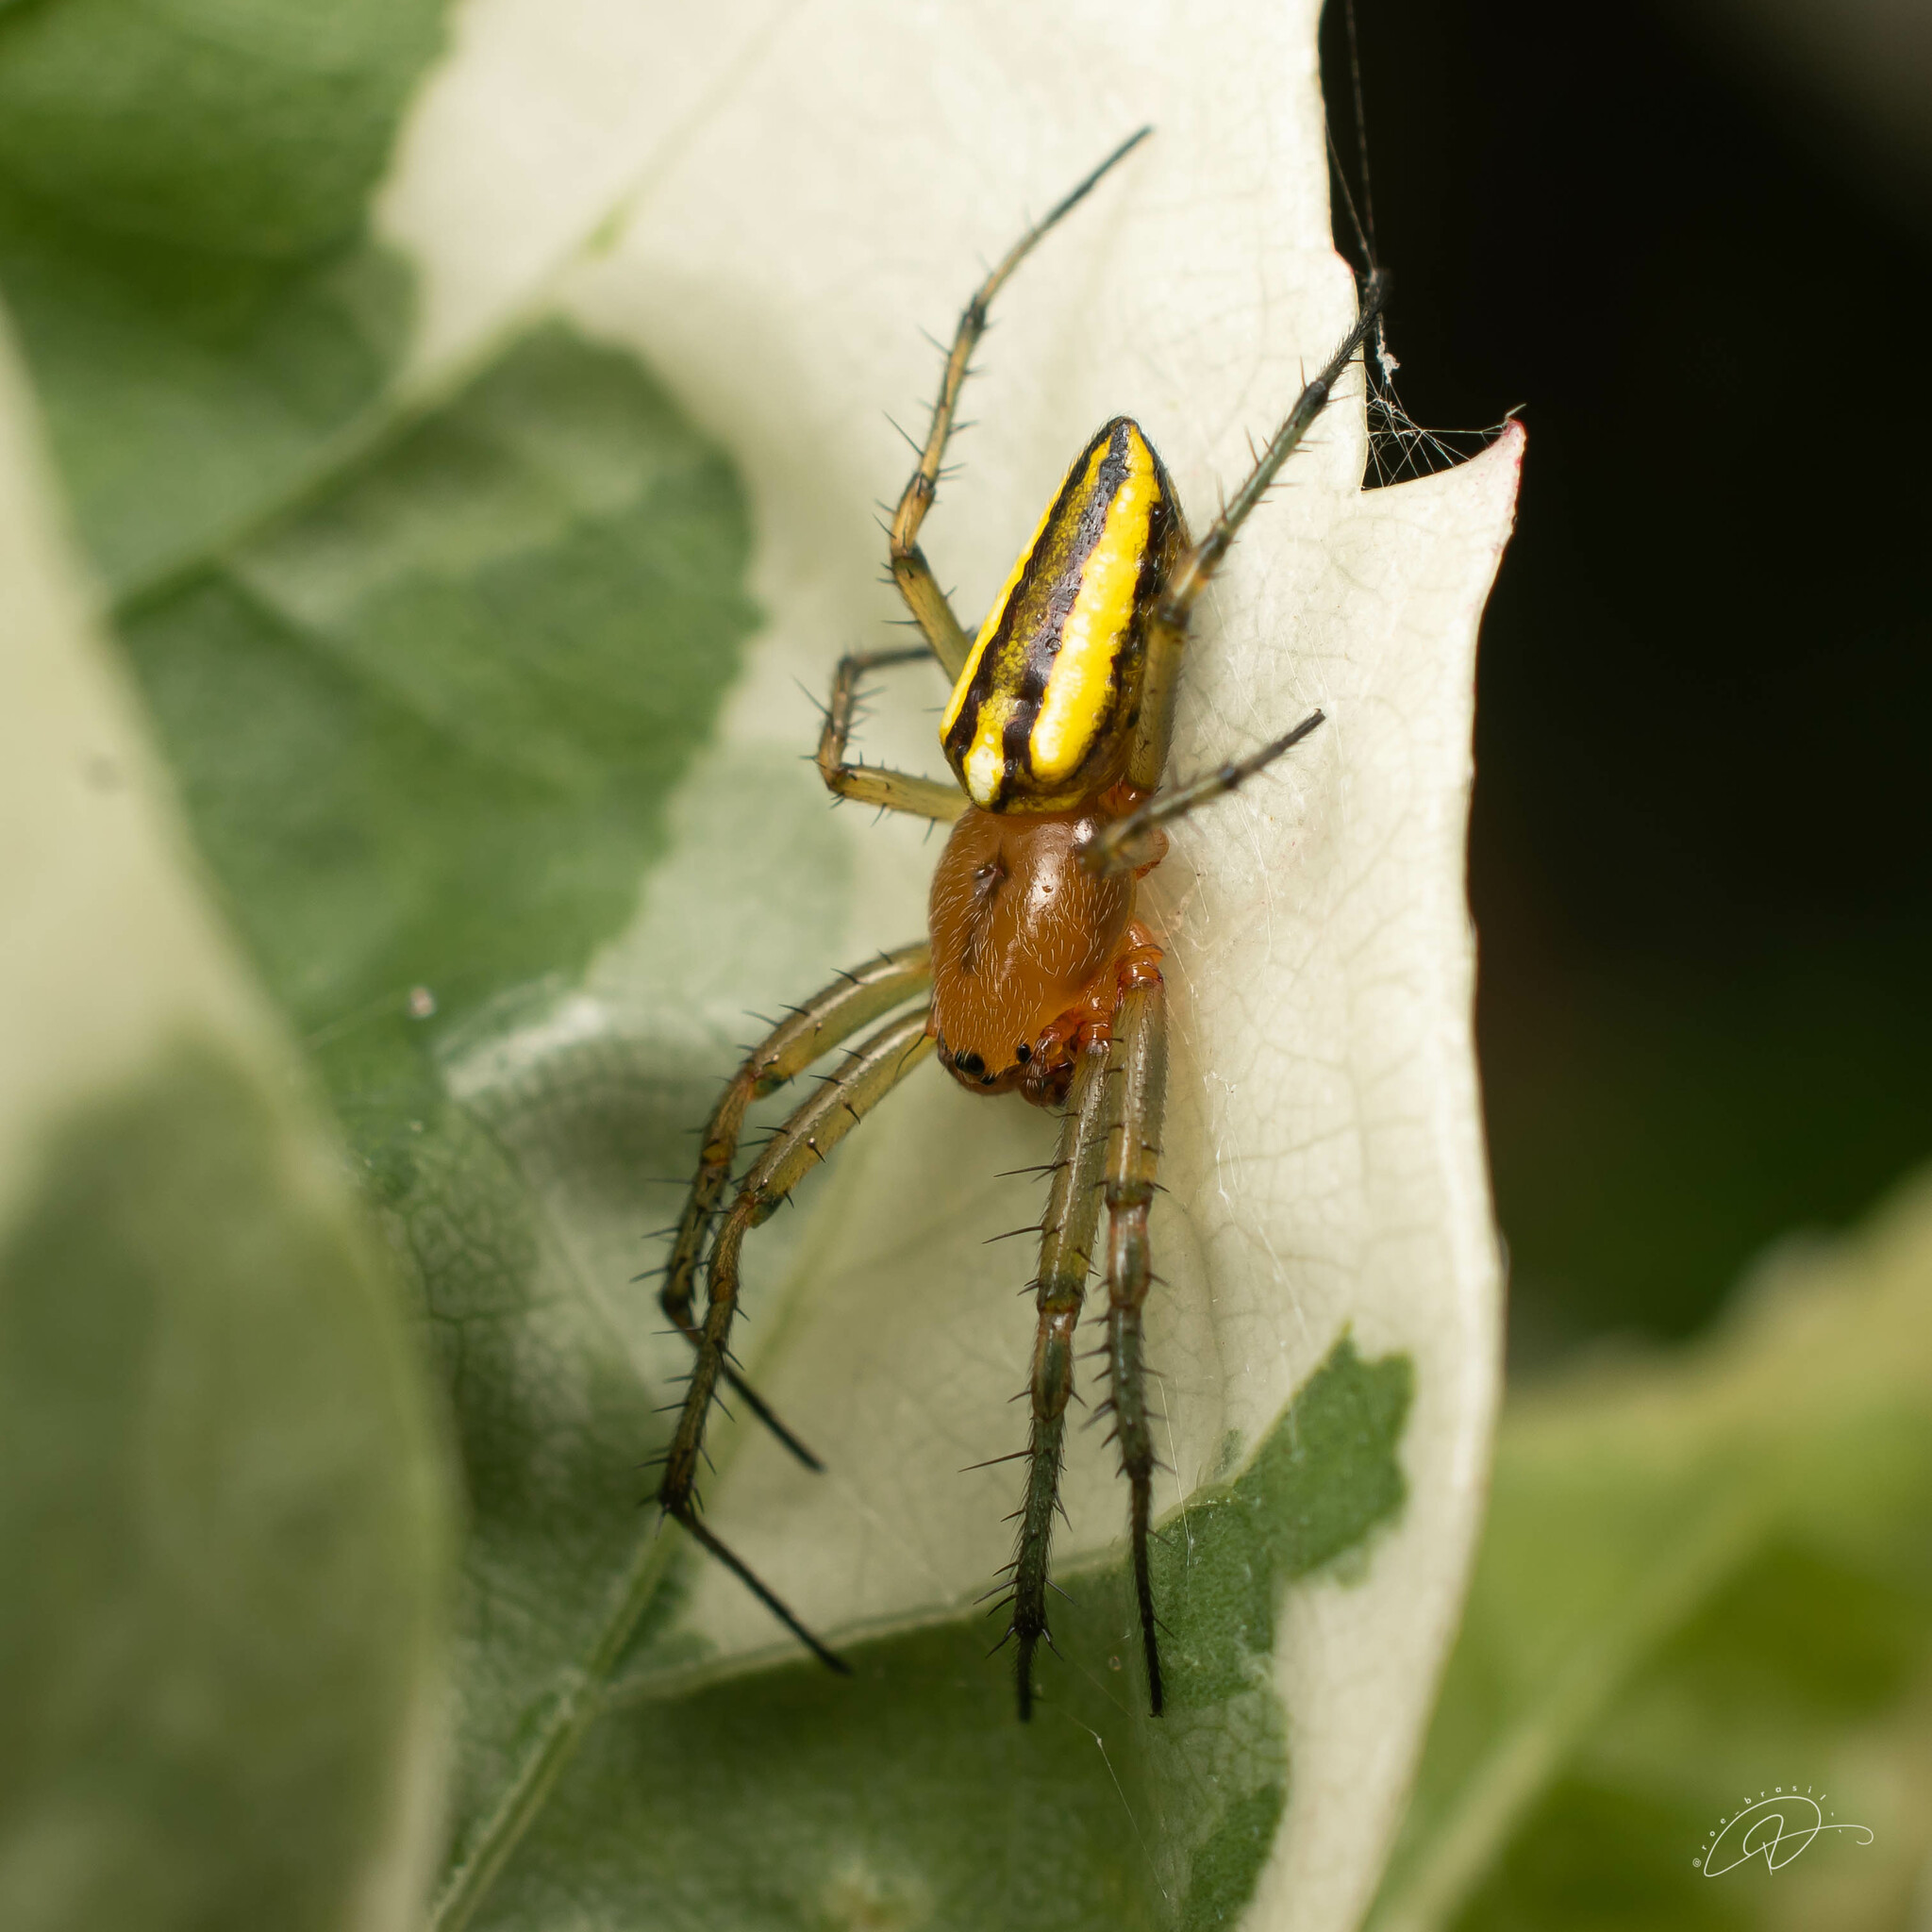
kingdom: Animalia
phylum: Arthropoda
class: Arachnida
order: Araneae
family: Araneidae
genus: Alpaida
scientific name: Alpaida bicornuta
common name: Orb weavers
